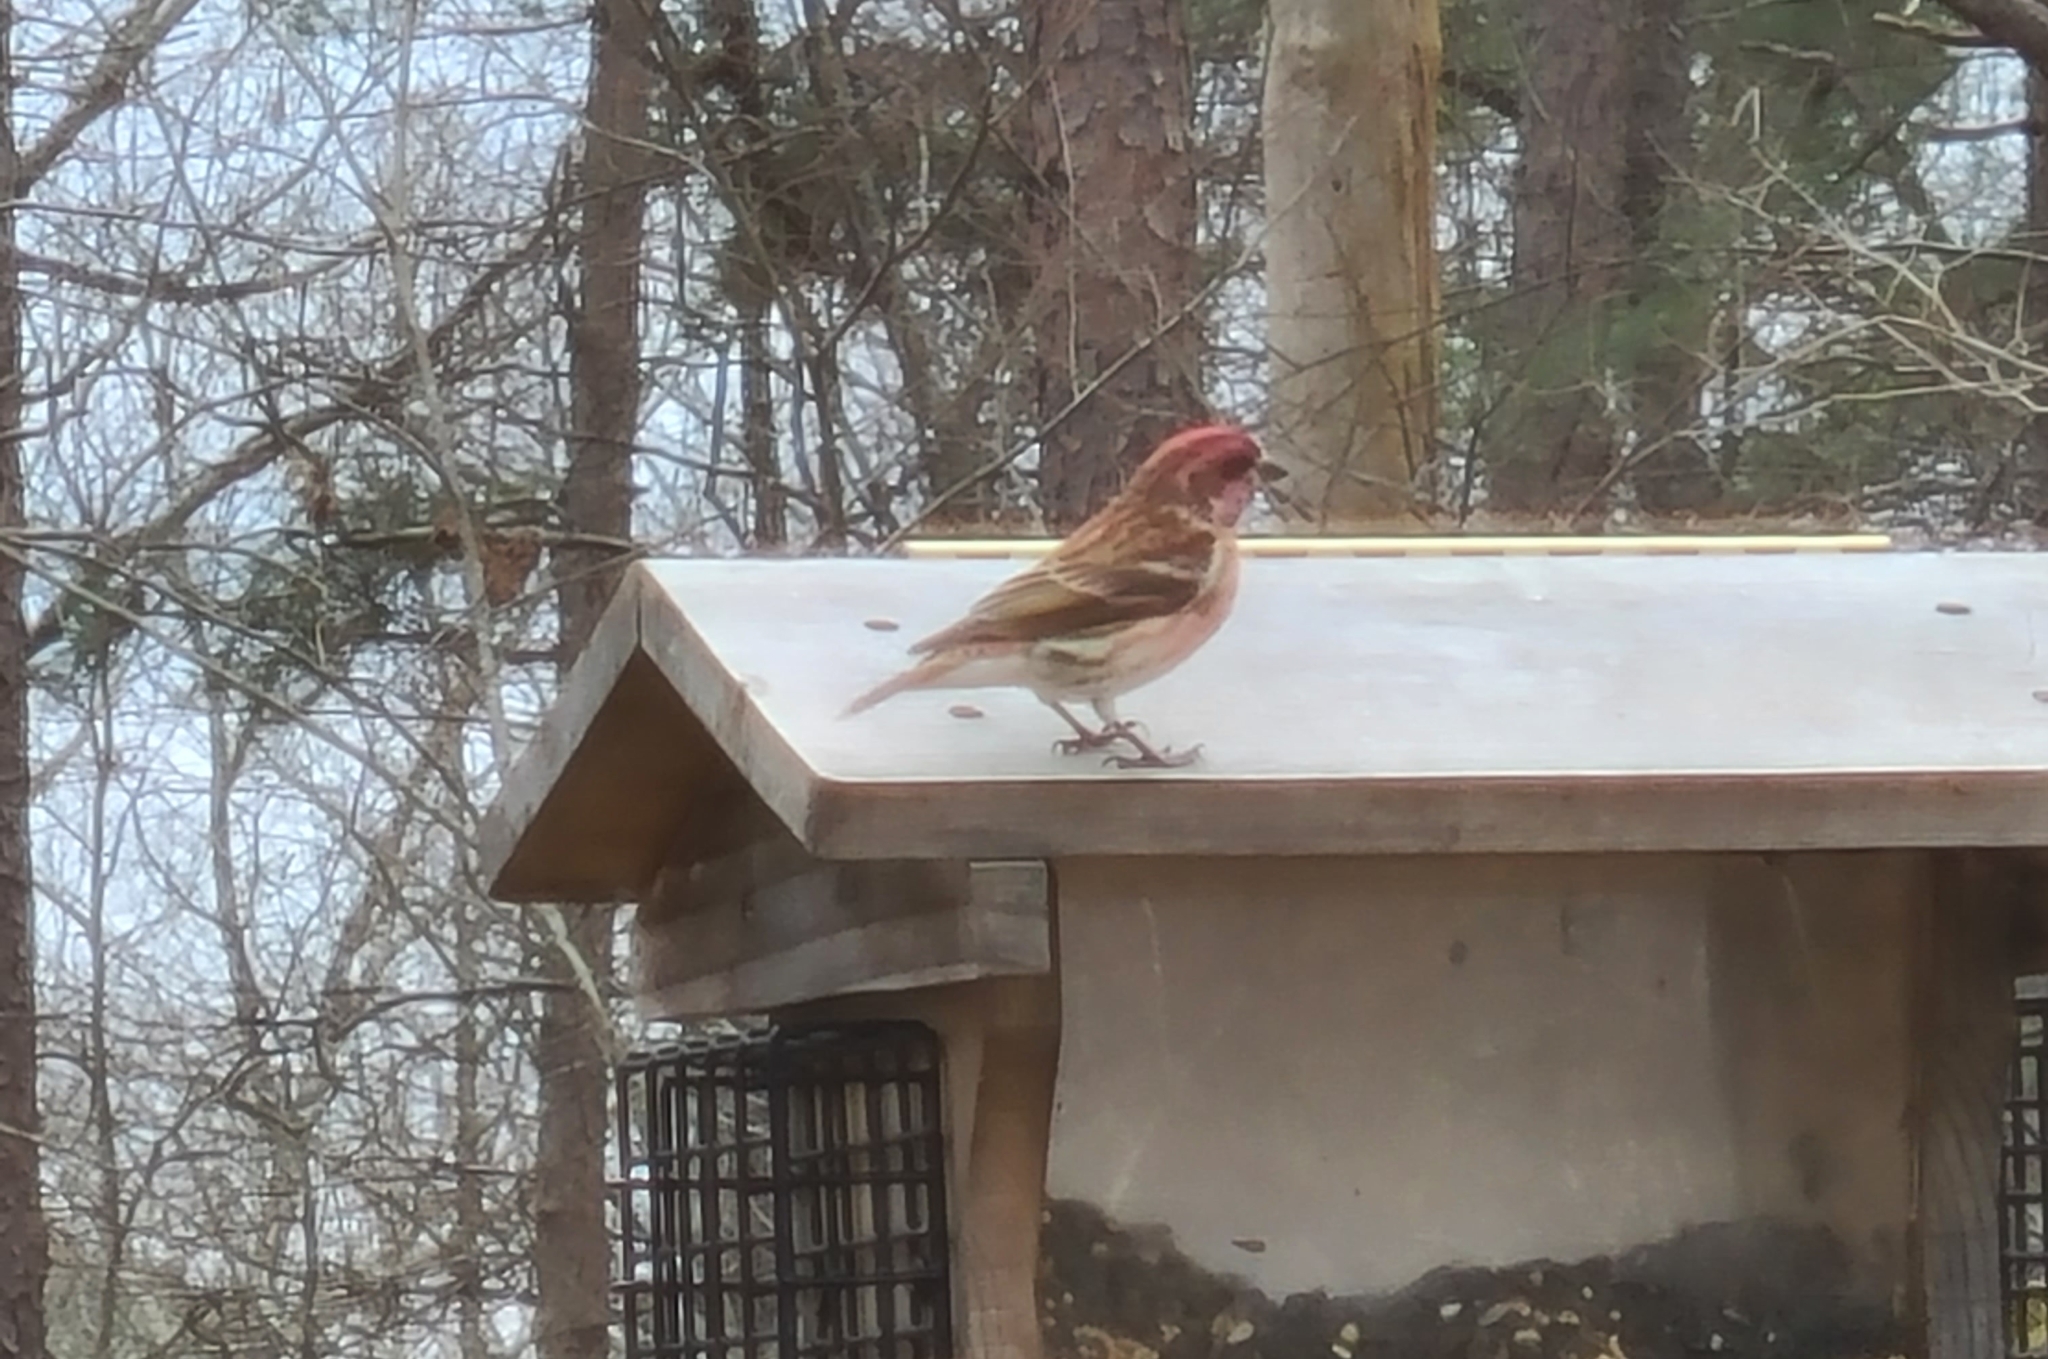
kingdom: Animalia
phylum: Chordata
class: Aves
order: Passeriformes
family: Fringillidae
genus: Haemorhous
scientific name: Haemorhous purpureus
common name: Purple finch
